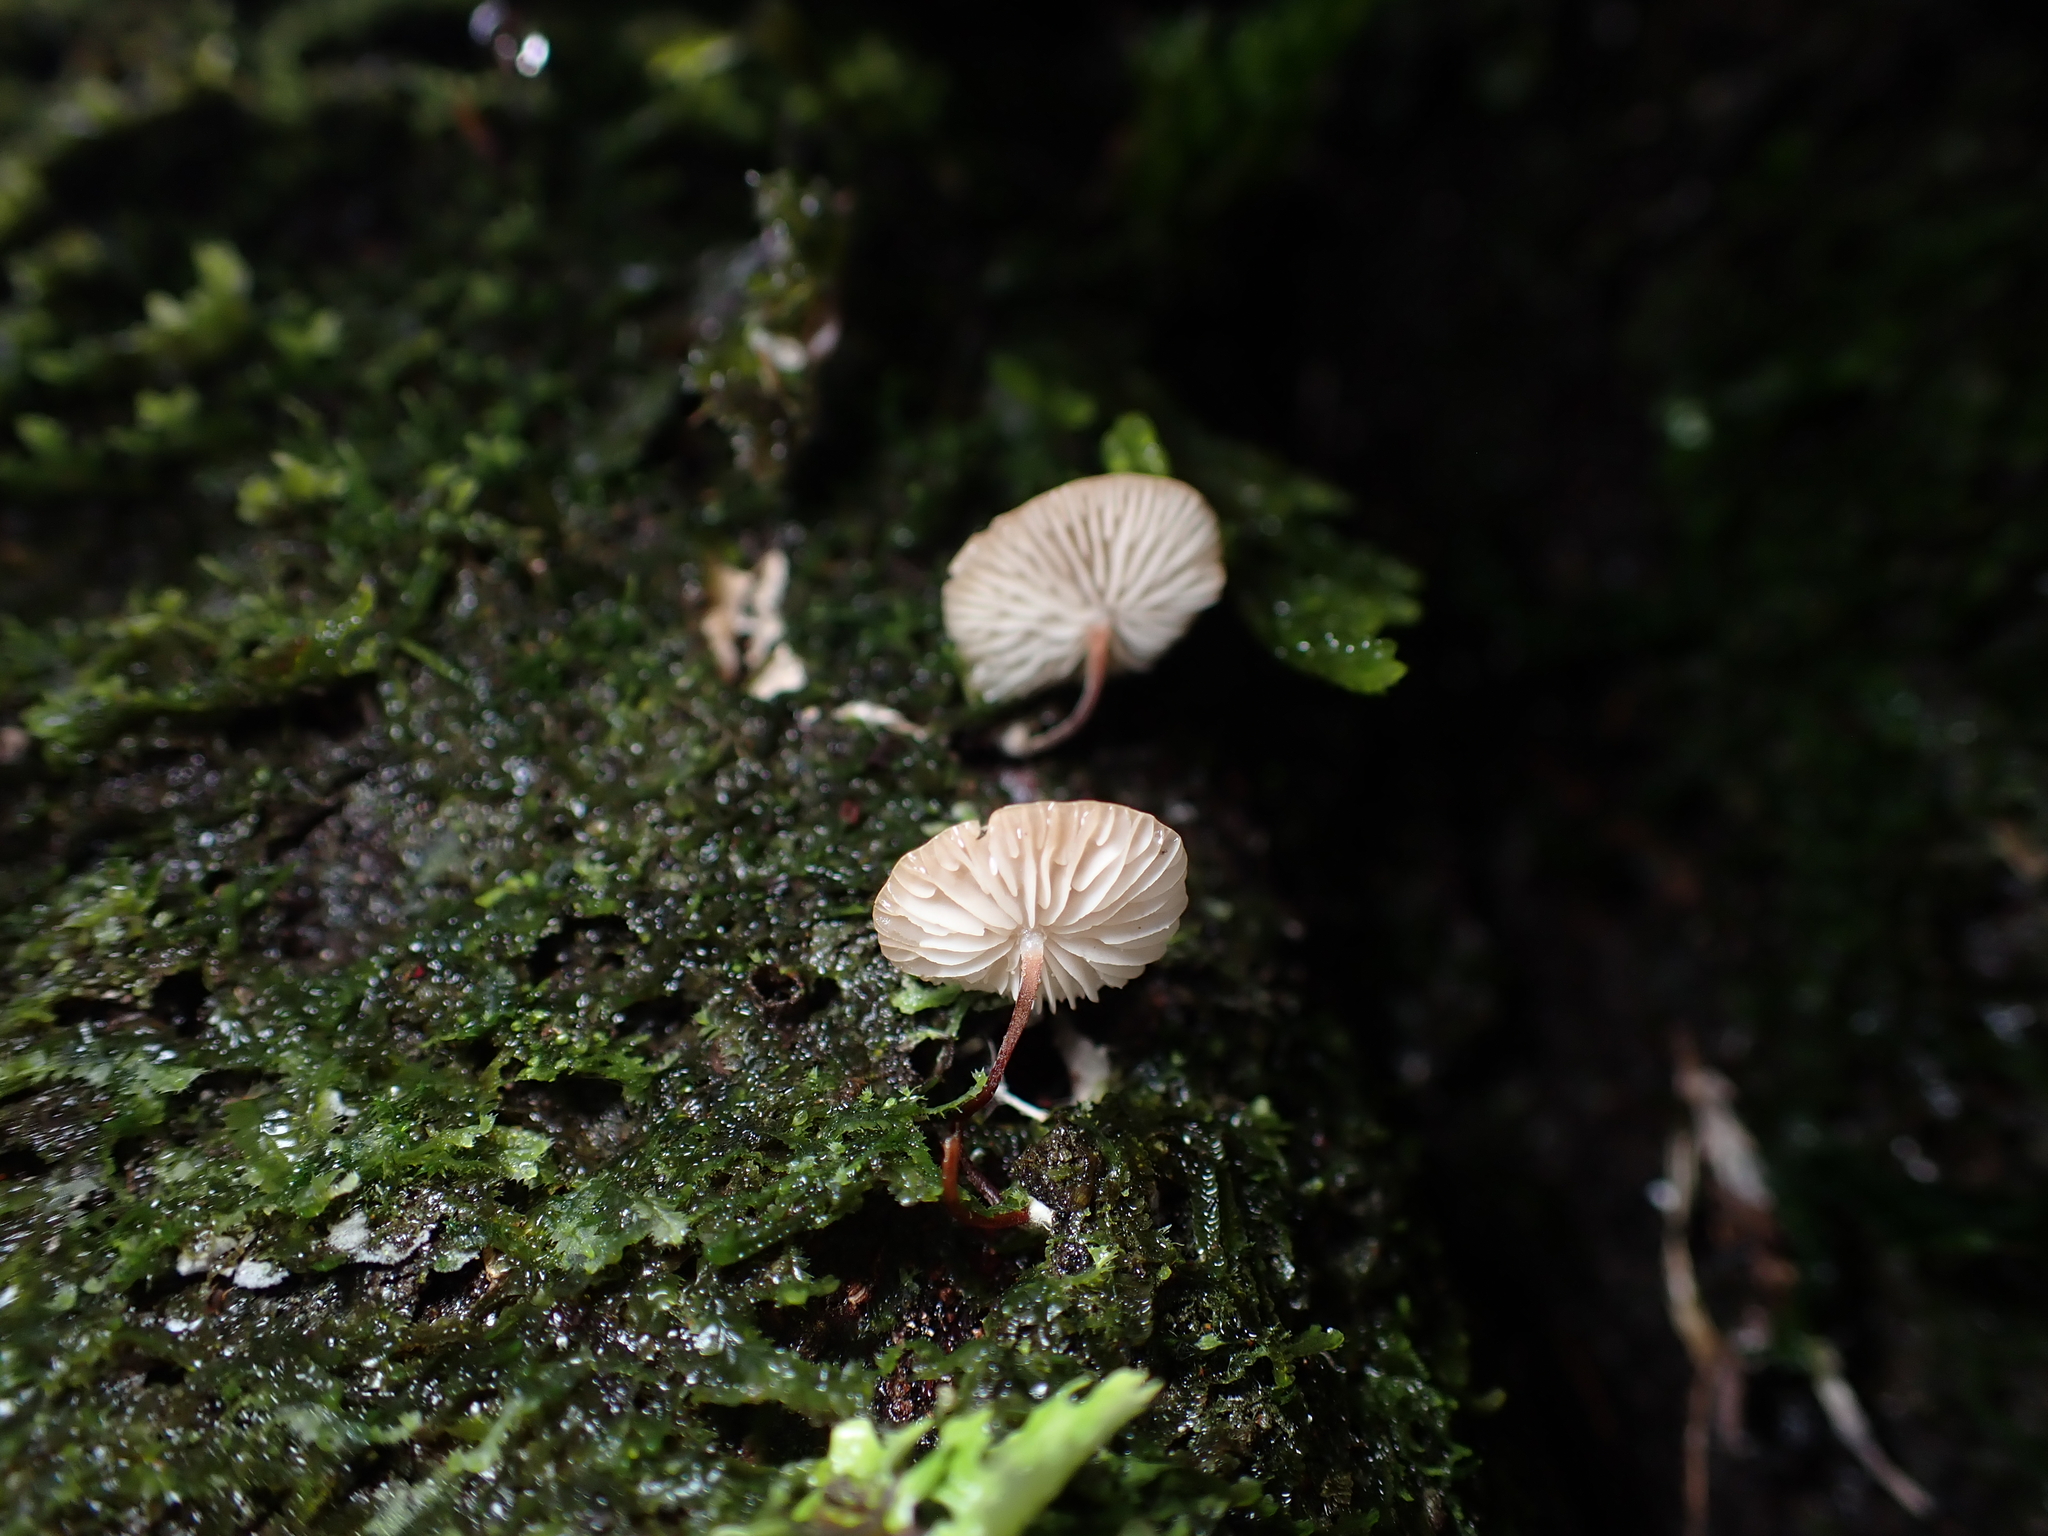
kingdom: Fungi
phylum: Basidiomycota
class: Agaricomycetes
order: Agaricales
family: Omphalotaceae
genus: Mycetinis
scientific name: Mycetinis curraniae
